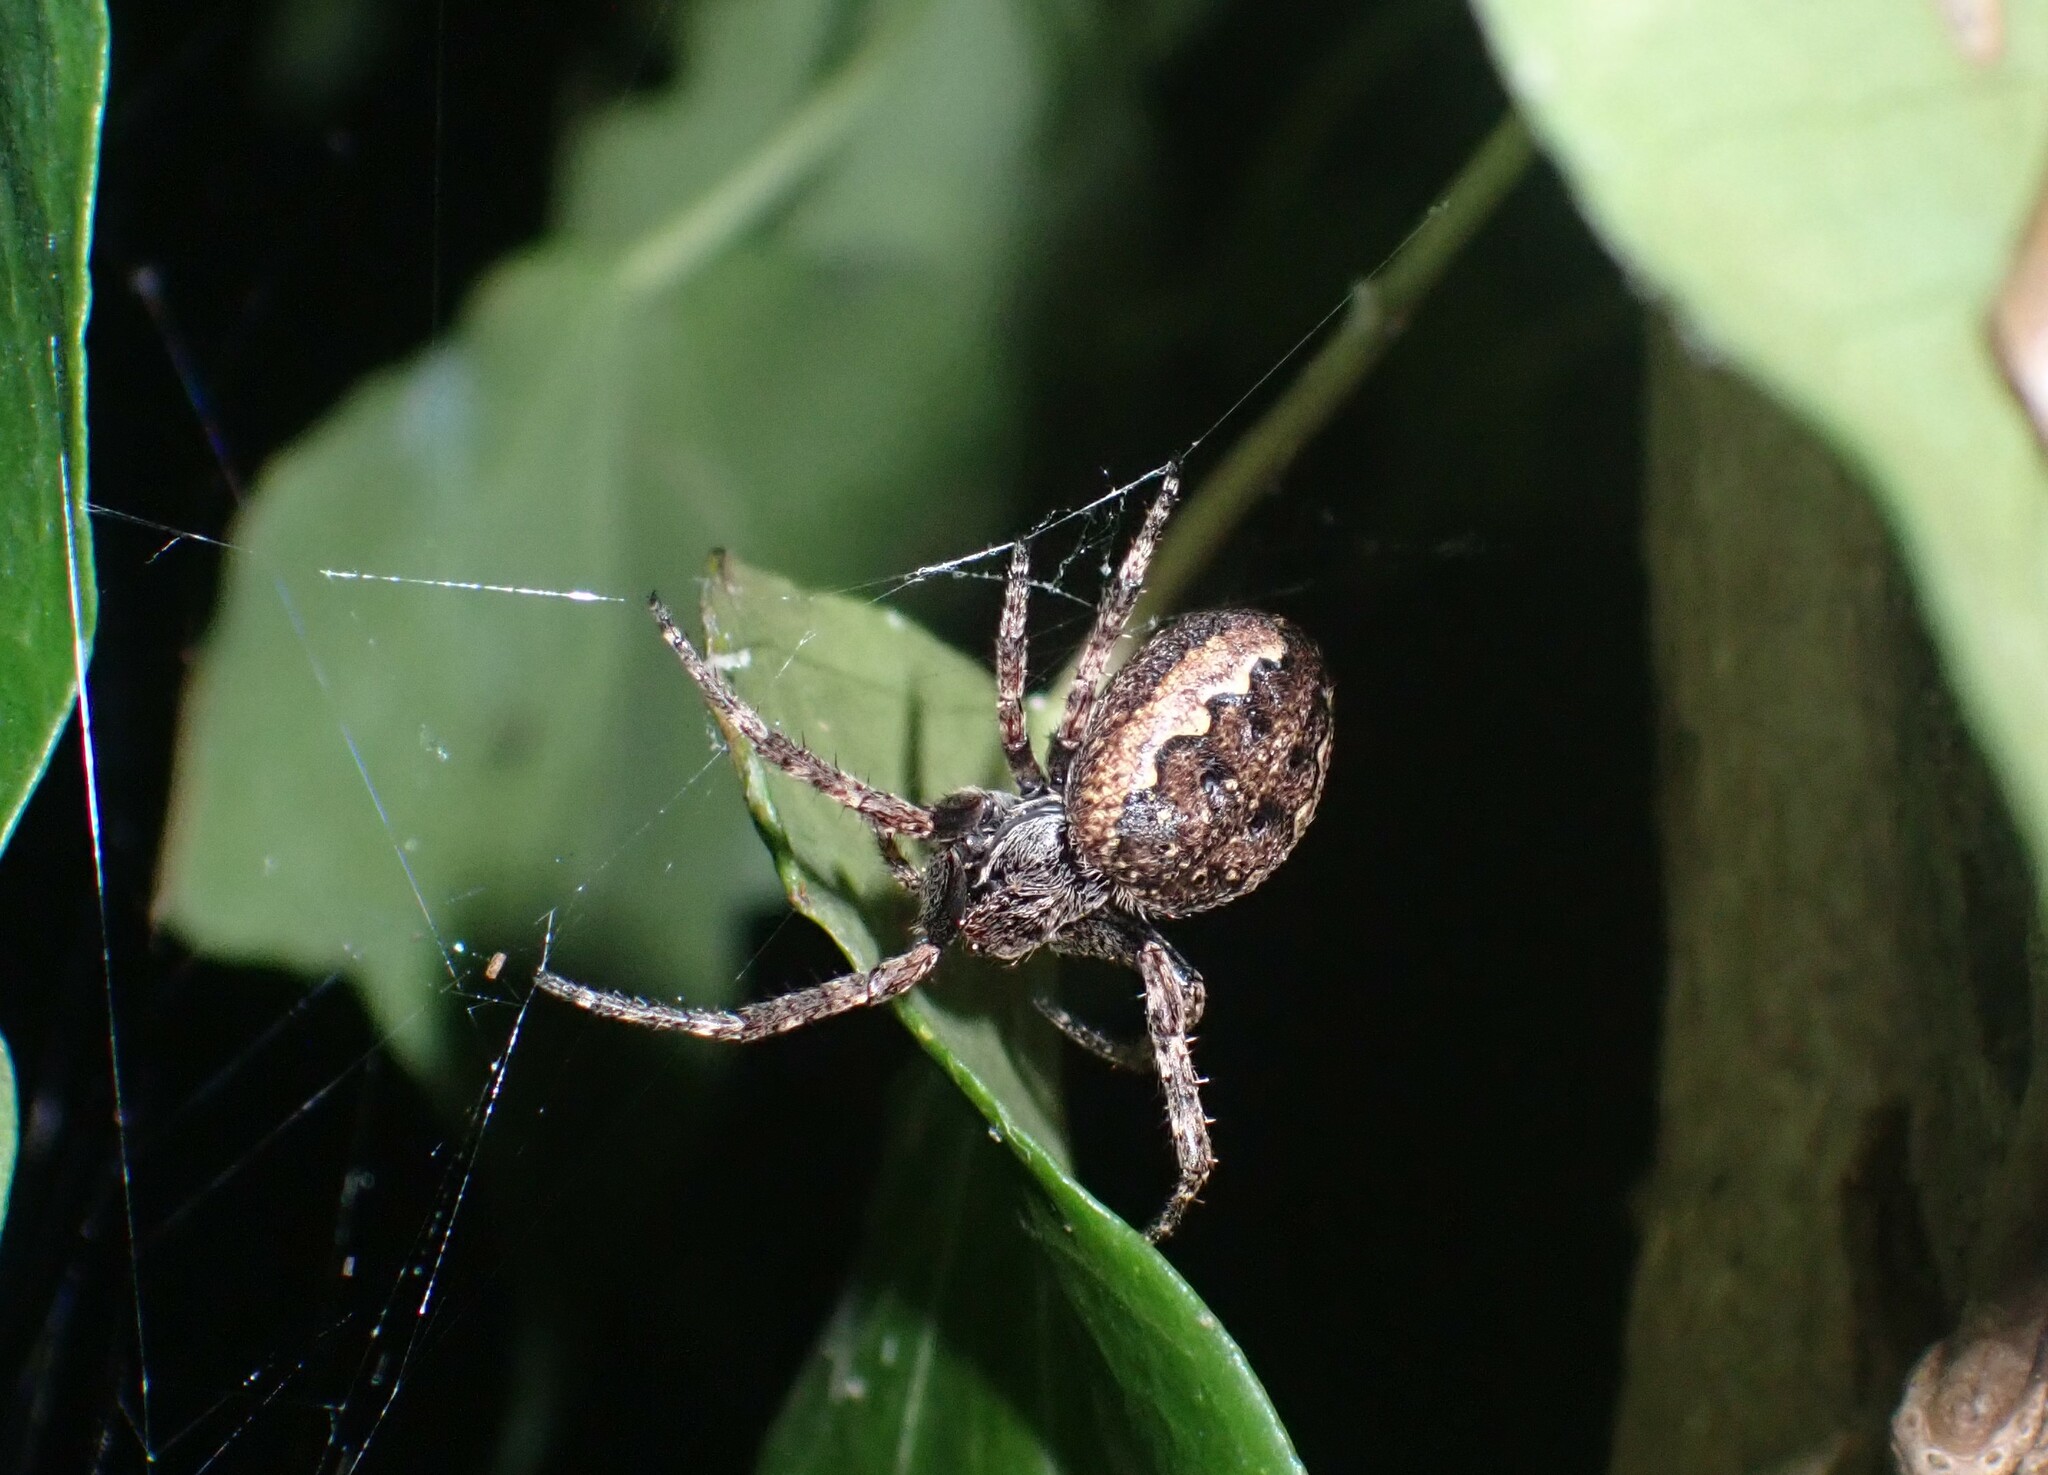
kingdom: Animalia
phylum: Arthropoda
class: Arachnida
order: Araneae
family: Araneidae
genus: Nuctenea
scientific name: Nuctenea umbratica
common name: Toad spider
